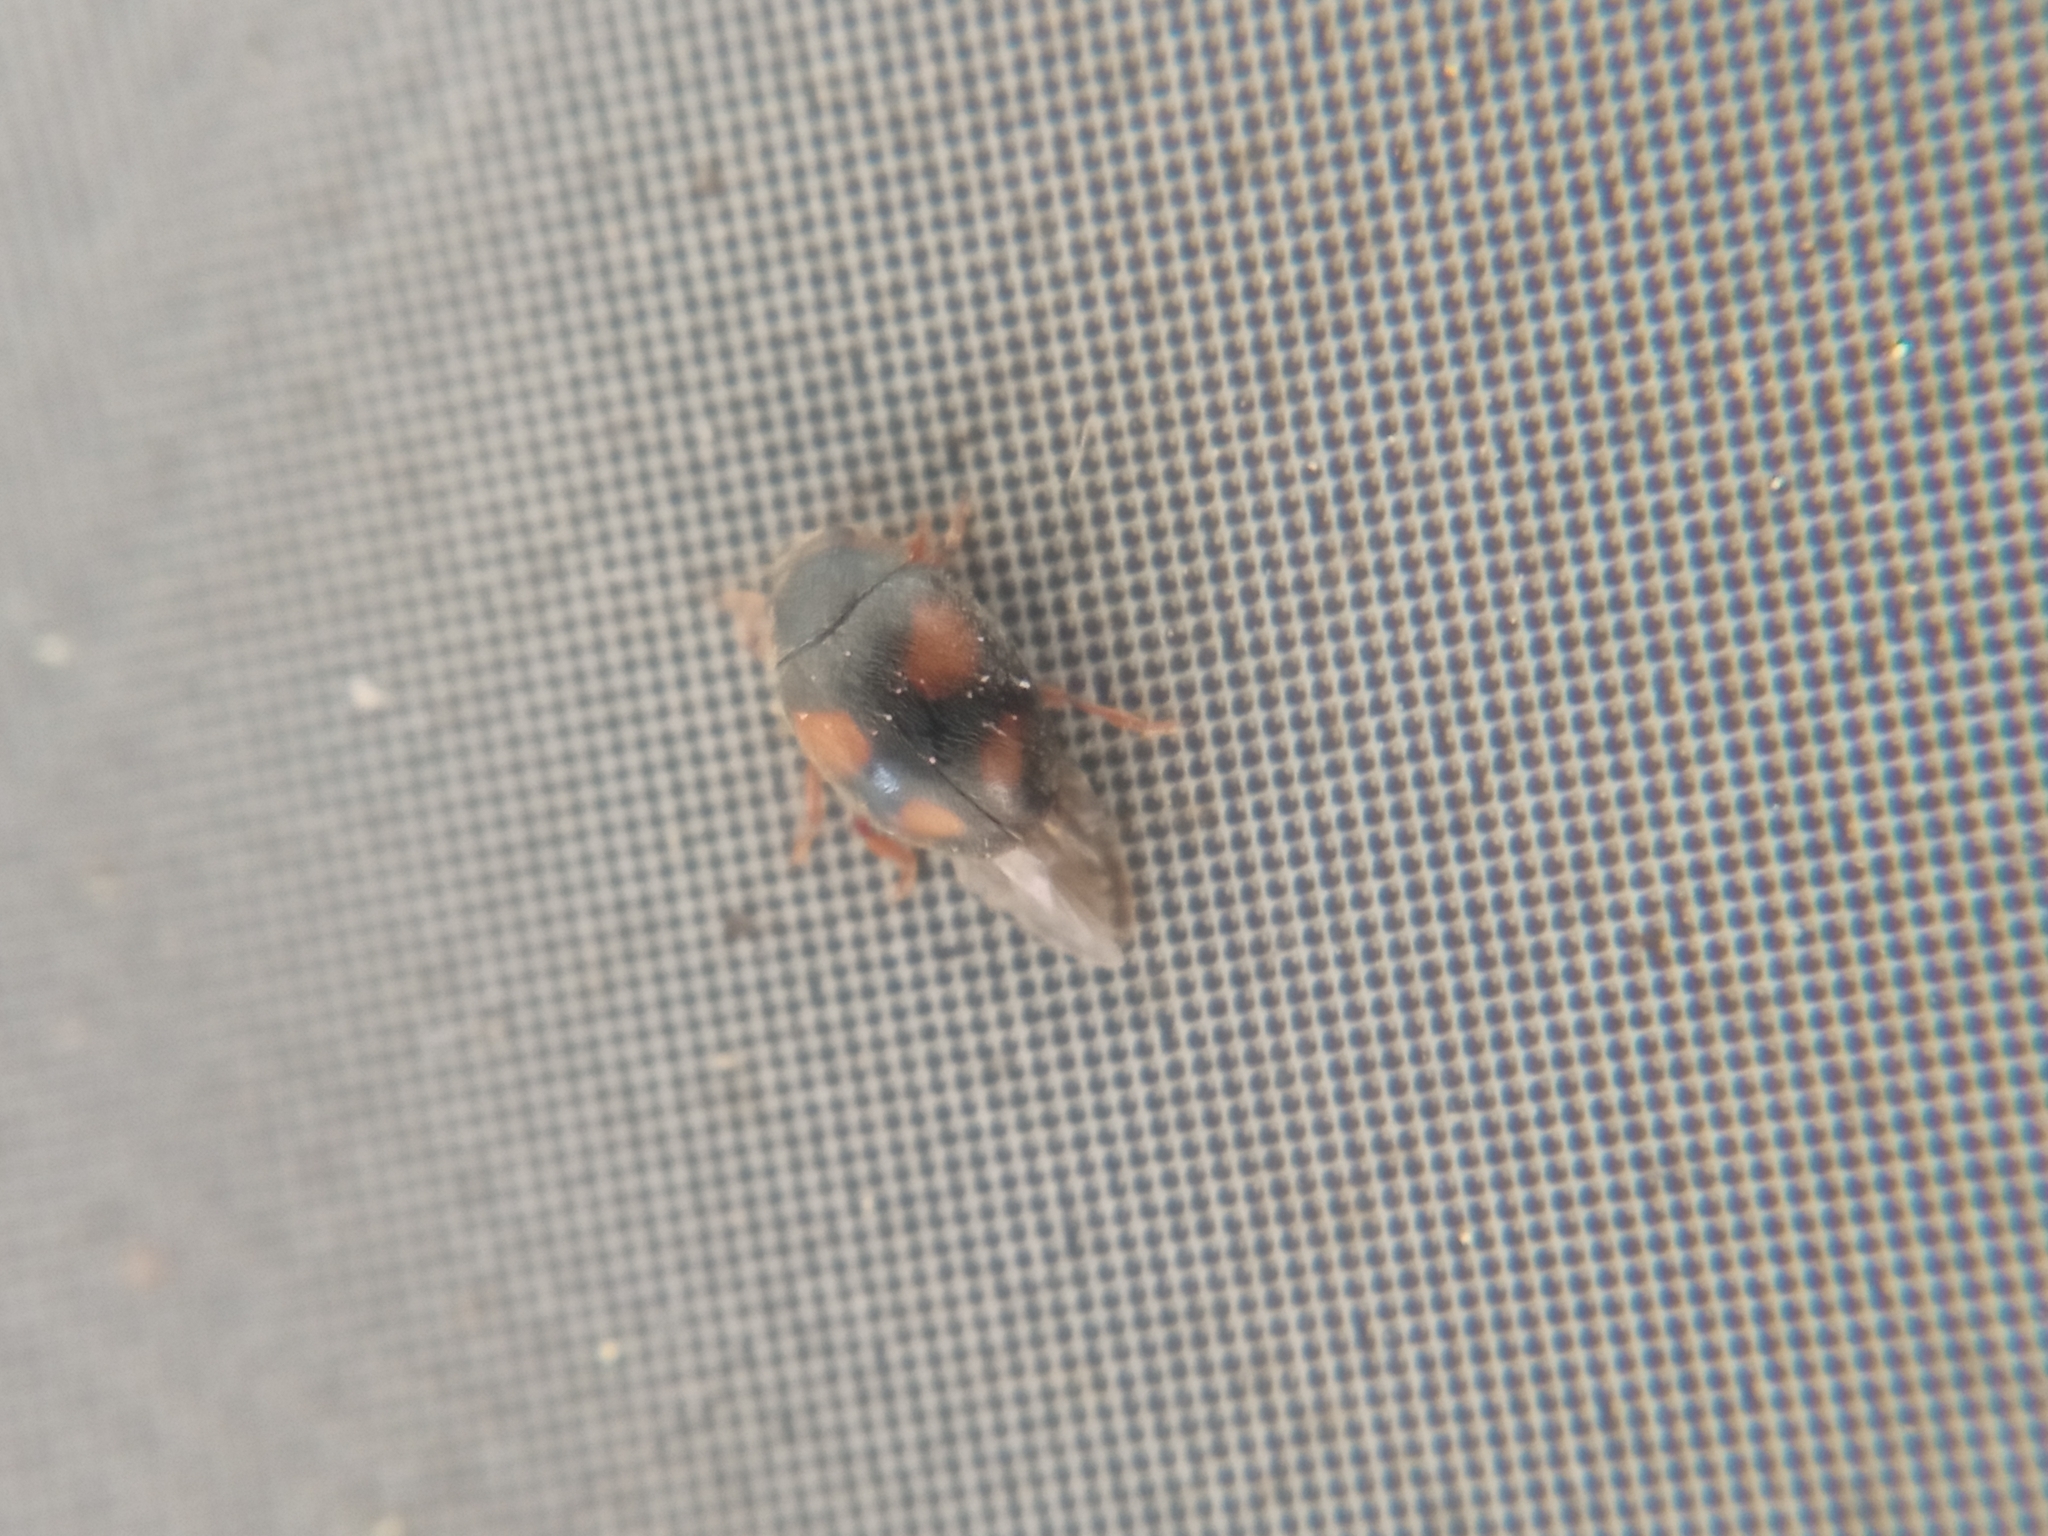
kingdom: Animalia
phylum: Arthropoda
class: Insecta
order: Coleoptera
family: Coccinellidae
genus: Platynaspis
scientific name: Platynaspis luteorubra
